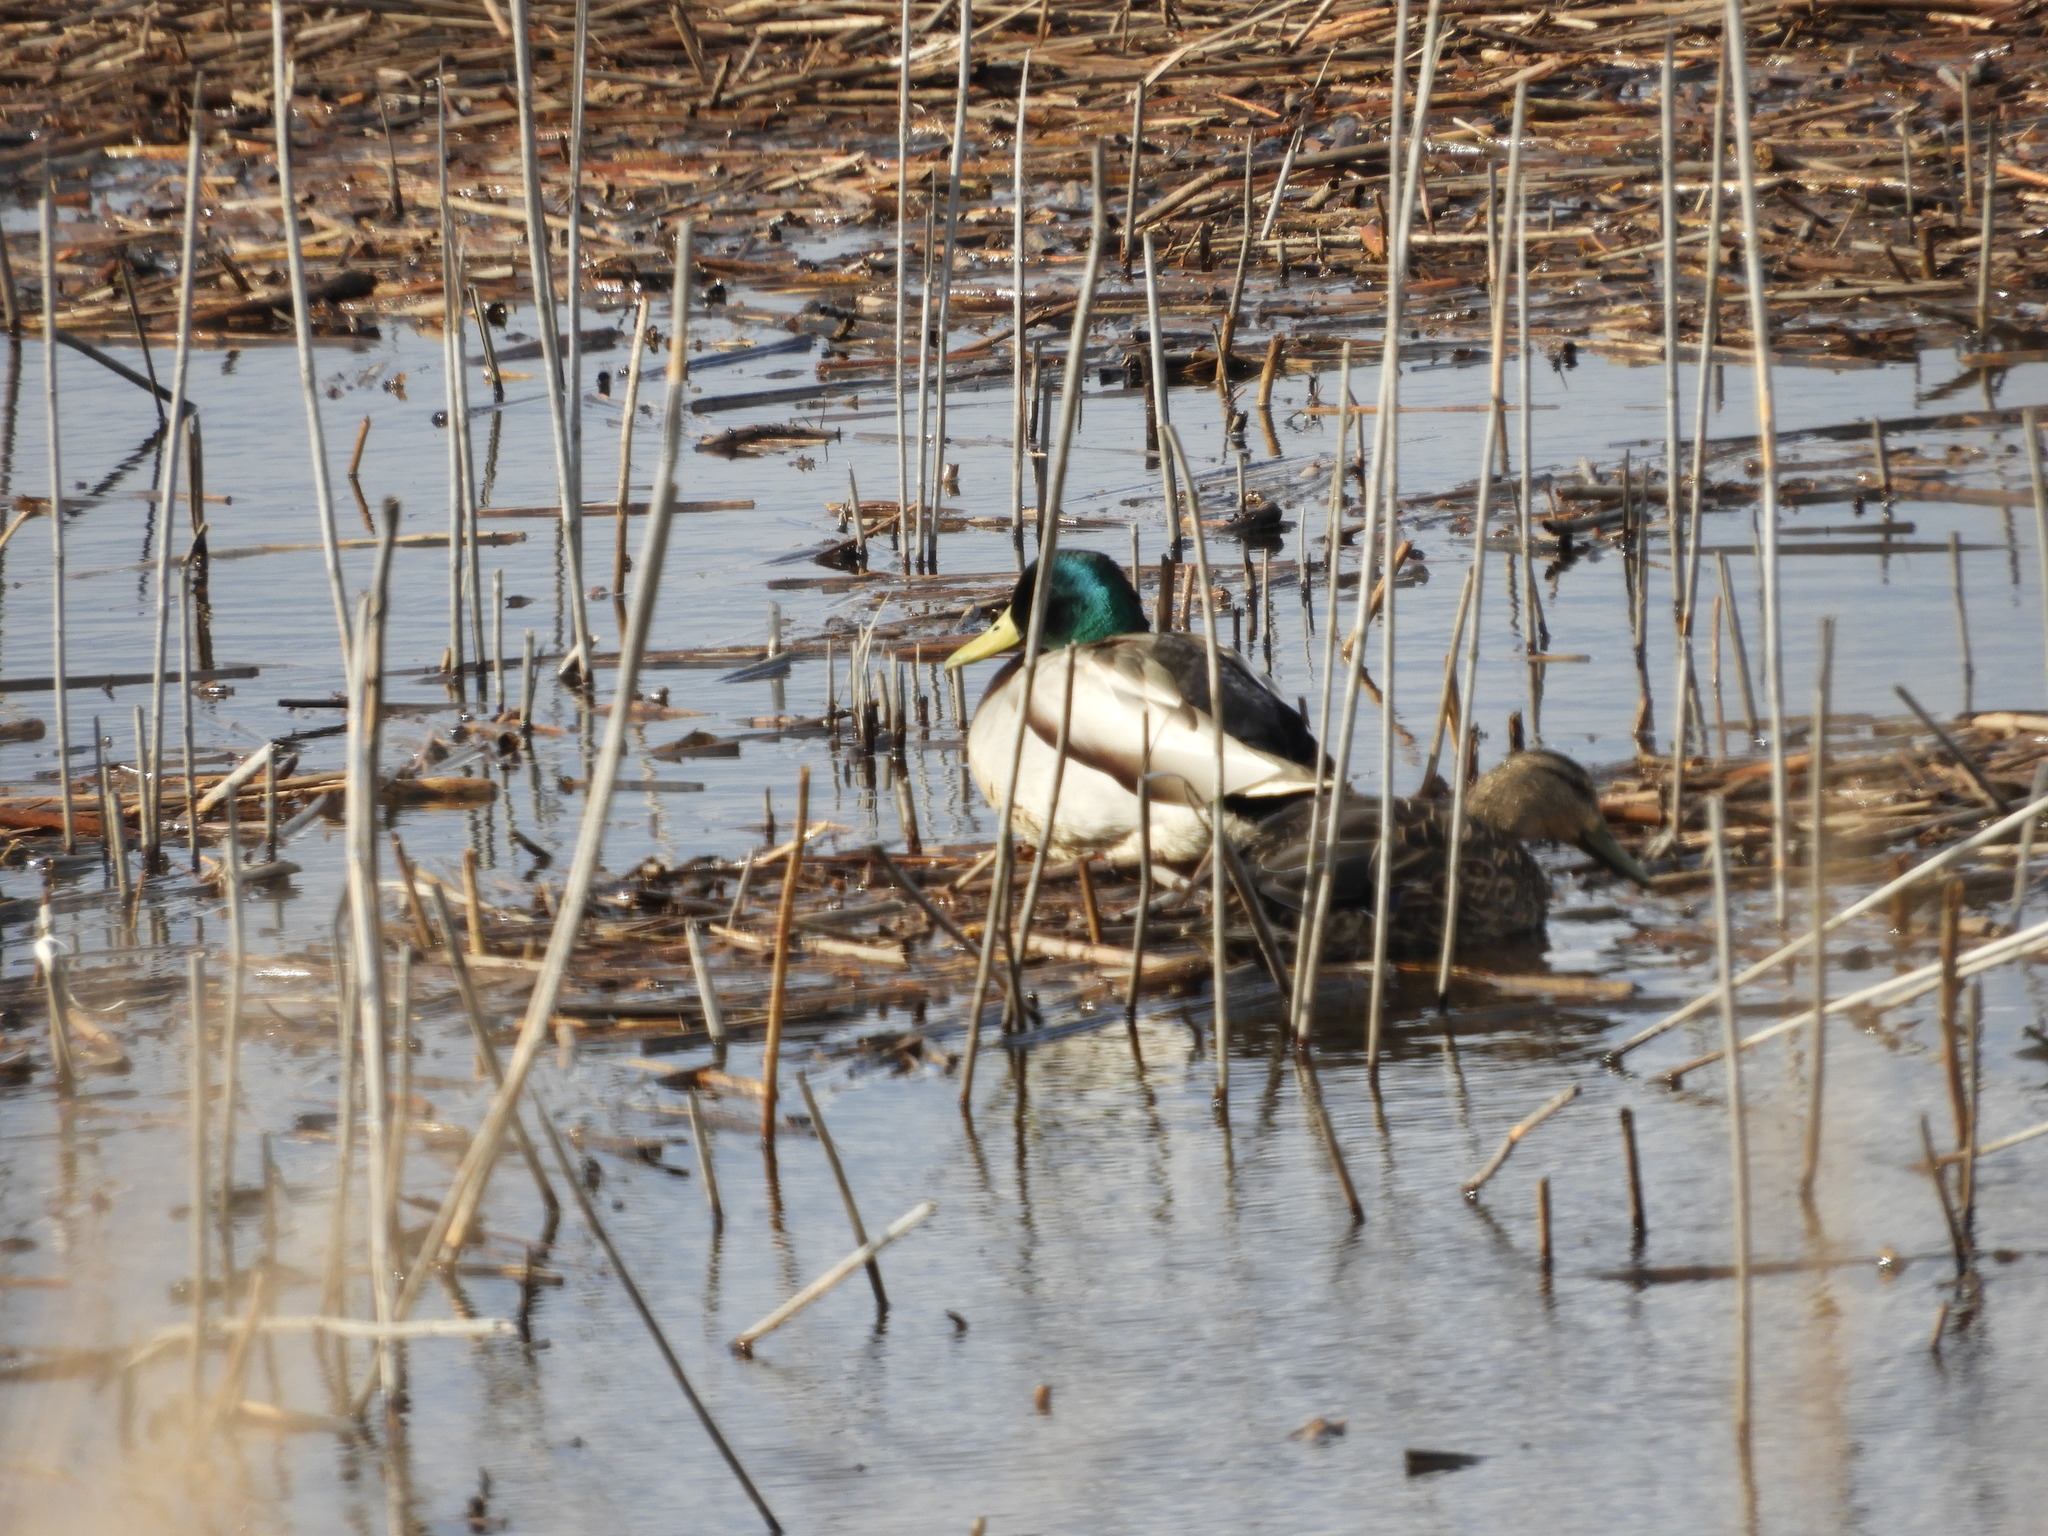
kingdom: Animalia
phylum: Chordata
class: Aves
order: Anseriformes
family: Anatidae
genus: Anas
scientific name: Anas platyrhynchos
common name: Mallard
